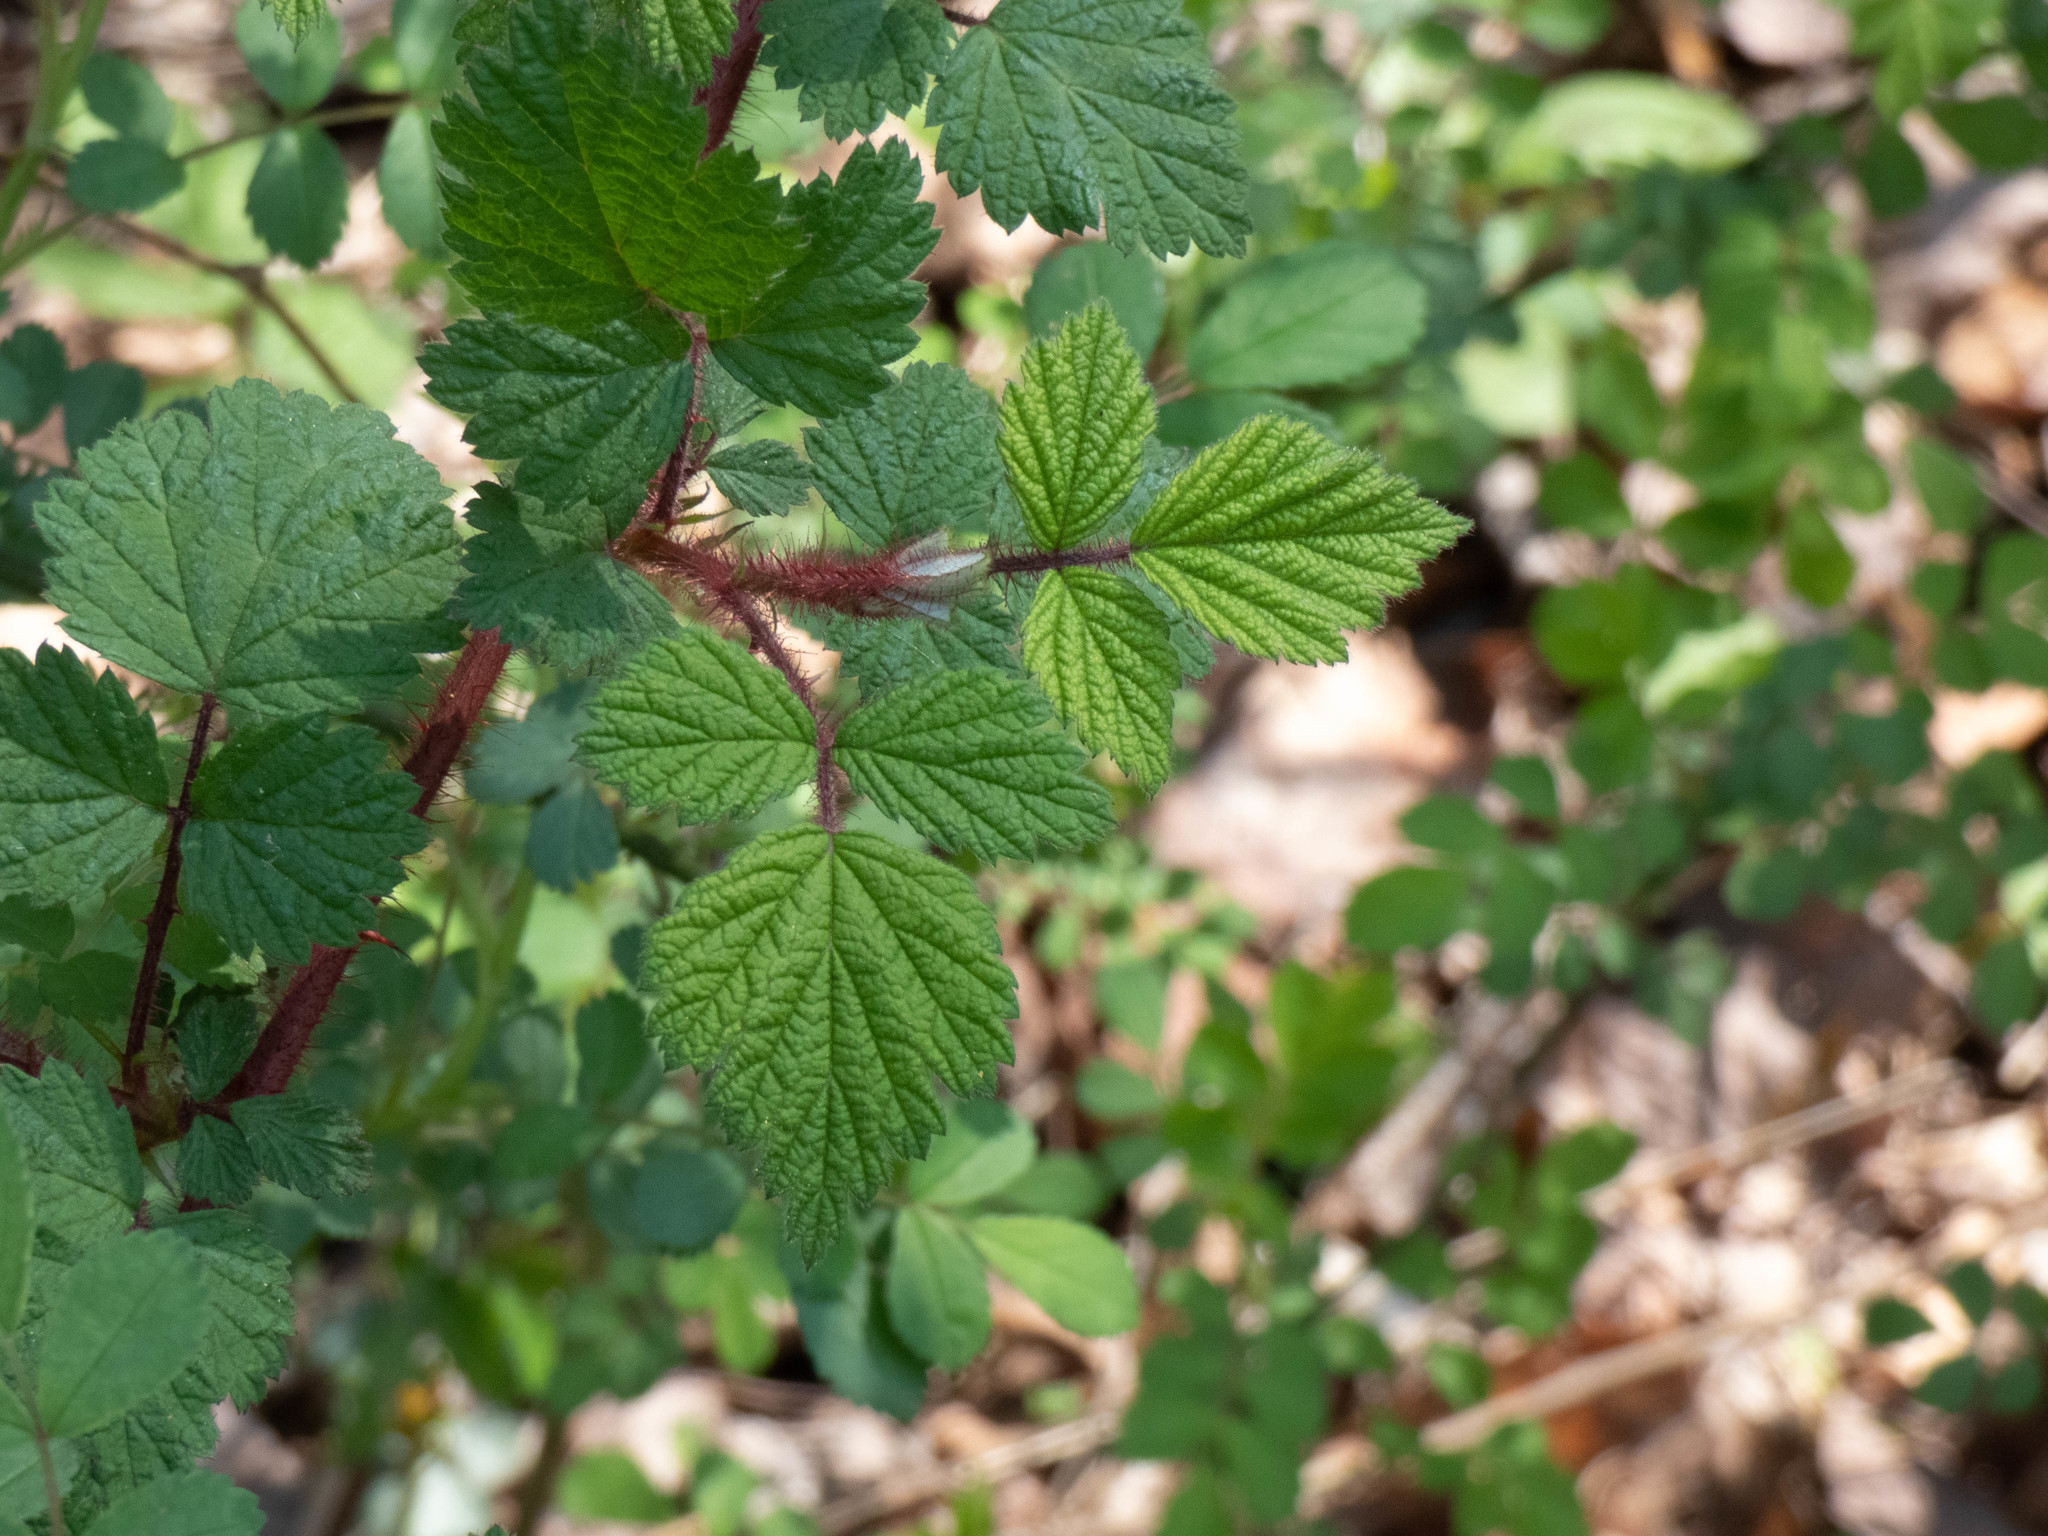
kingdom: Plantae
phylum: Tracheophyta
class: Magnoliopsida
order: Rosales
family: Rosaceae
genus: Rubus
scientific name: Rubus phoenicolasius
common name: Japanese wineberry
